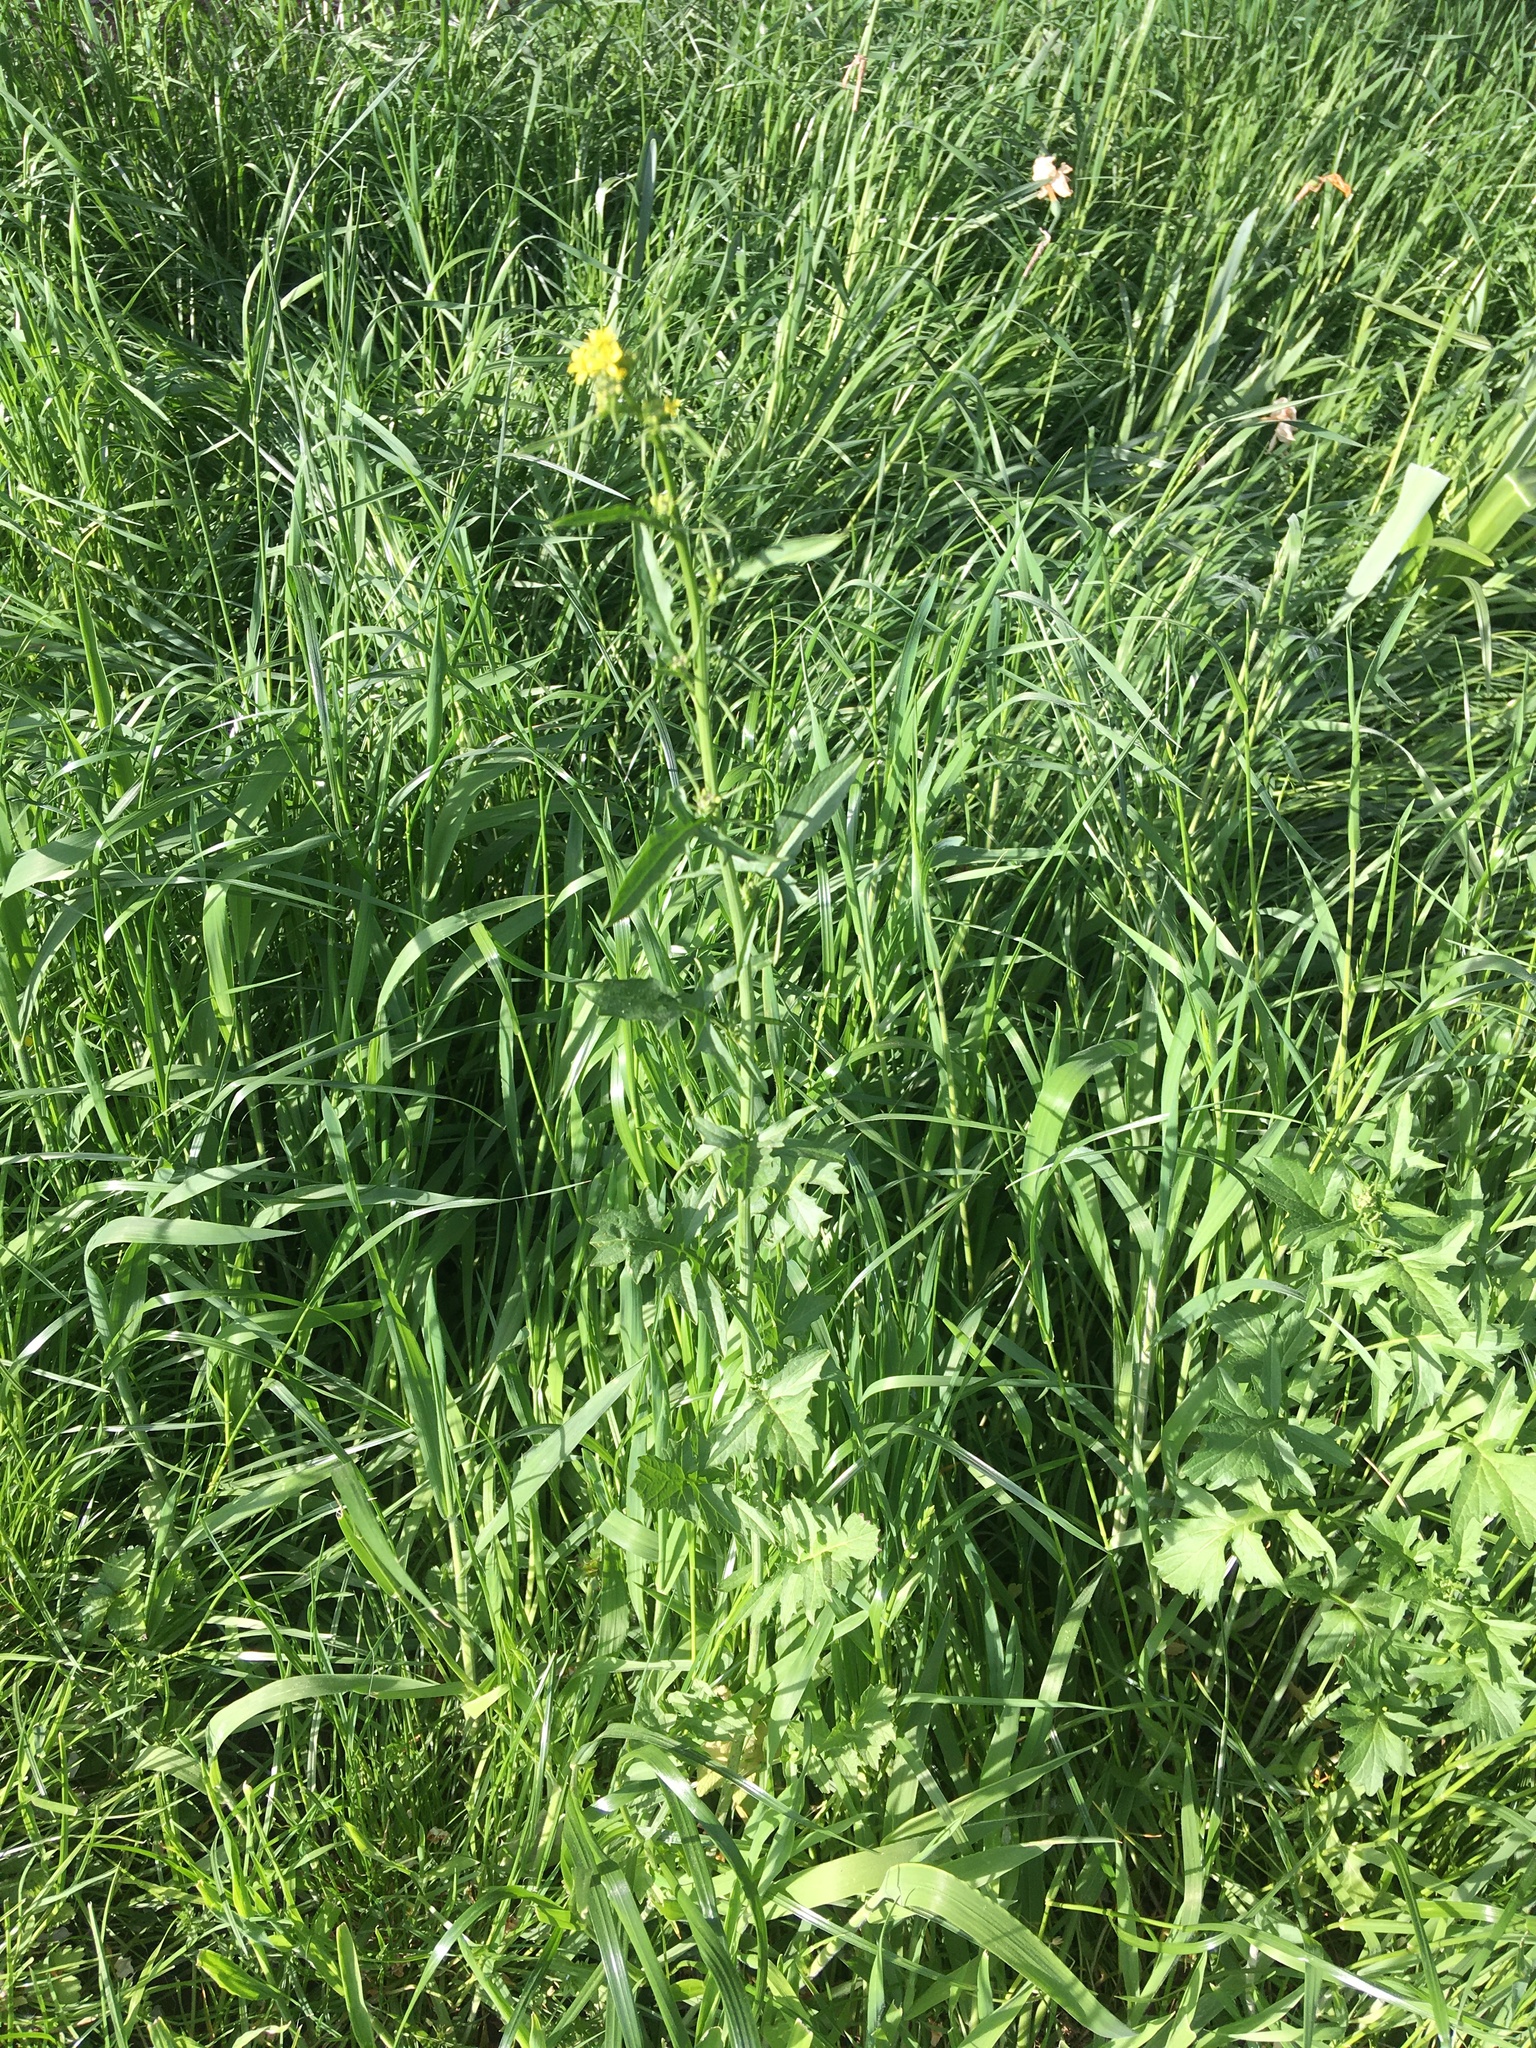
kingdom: Plantae
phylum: Tracheophyta
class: Magnoliopsida
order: Brassicales
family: Brassicaceae
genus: Sisymbrium
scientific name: Sisymbrium officinale
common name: Hedge mustard
